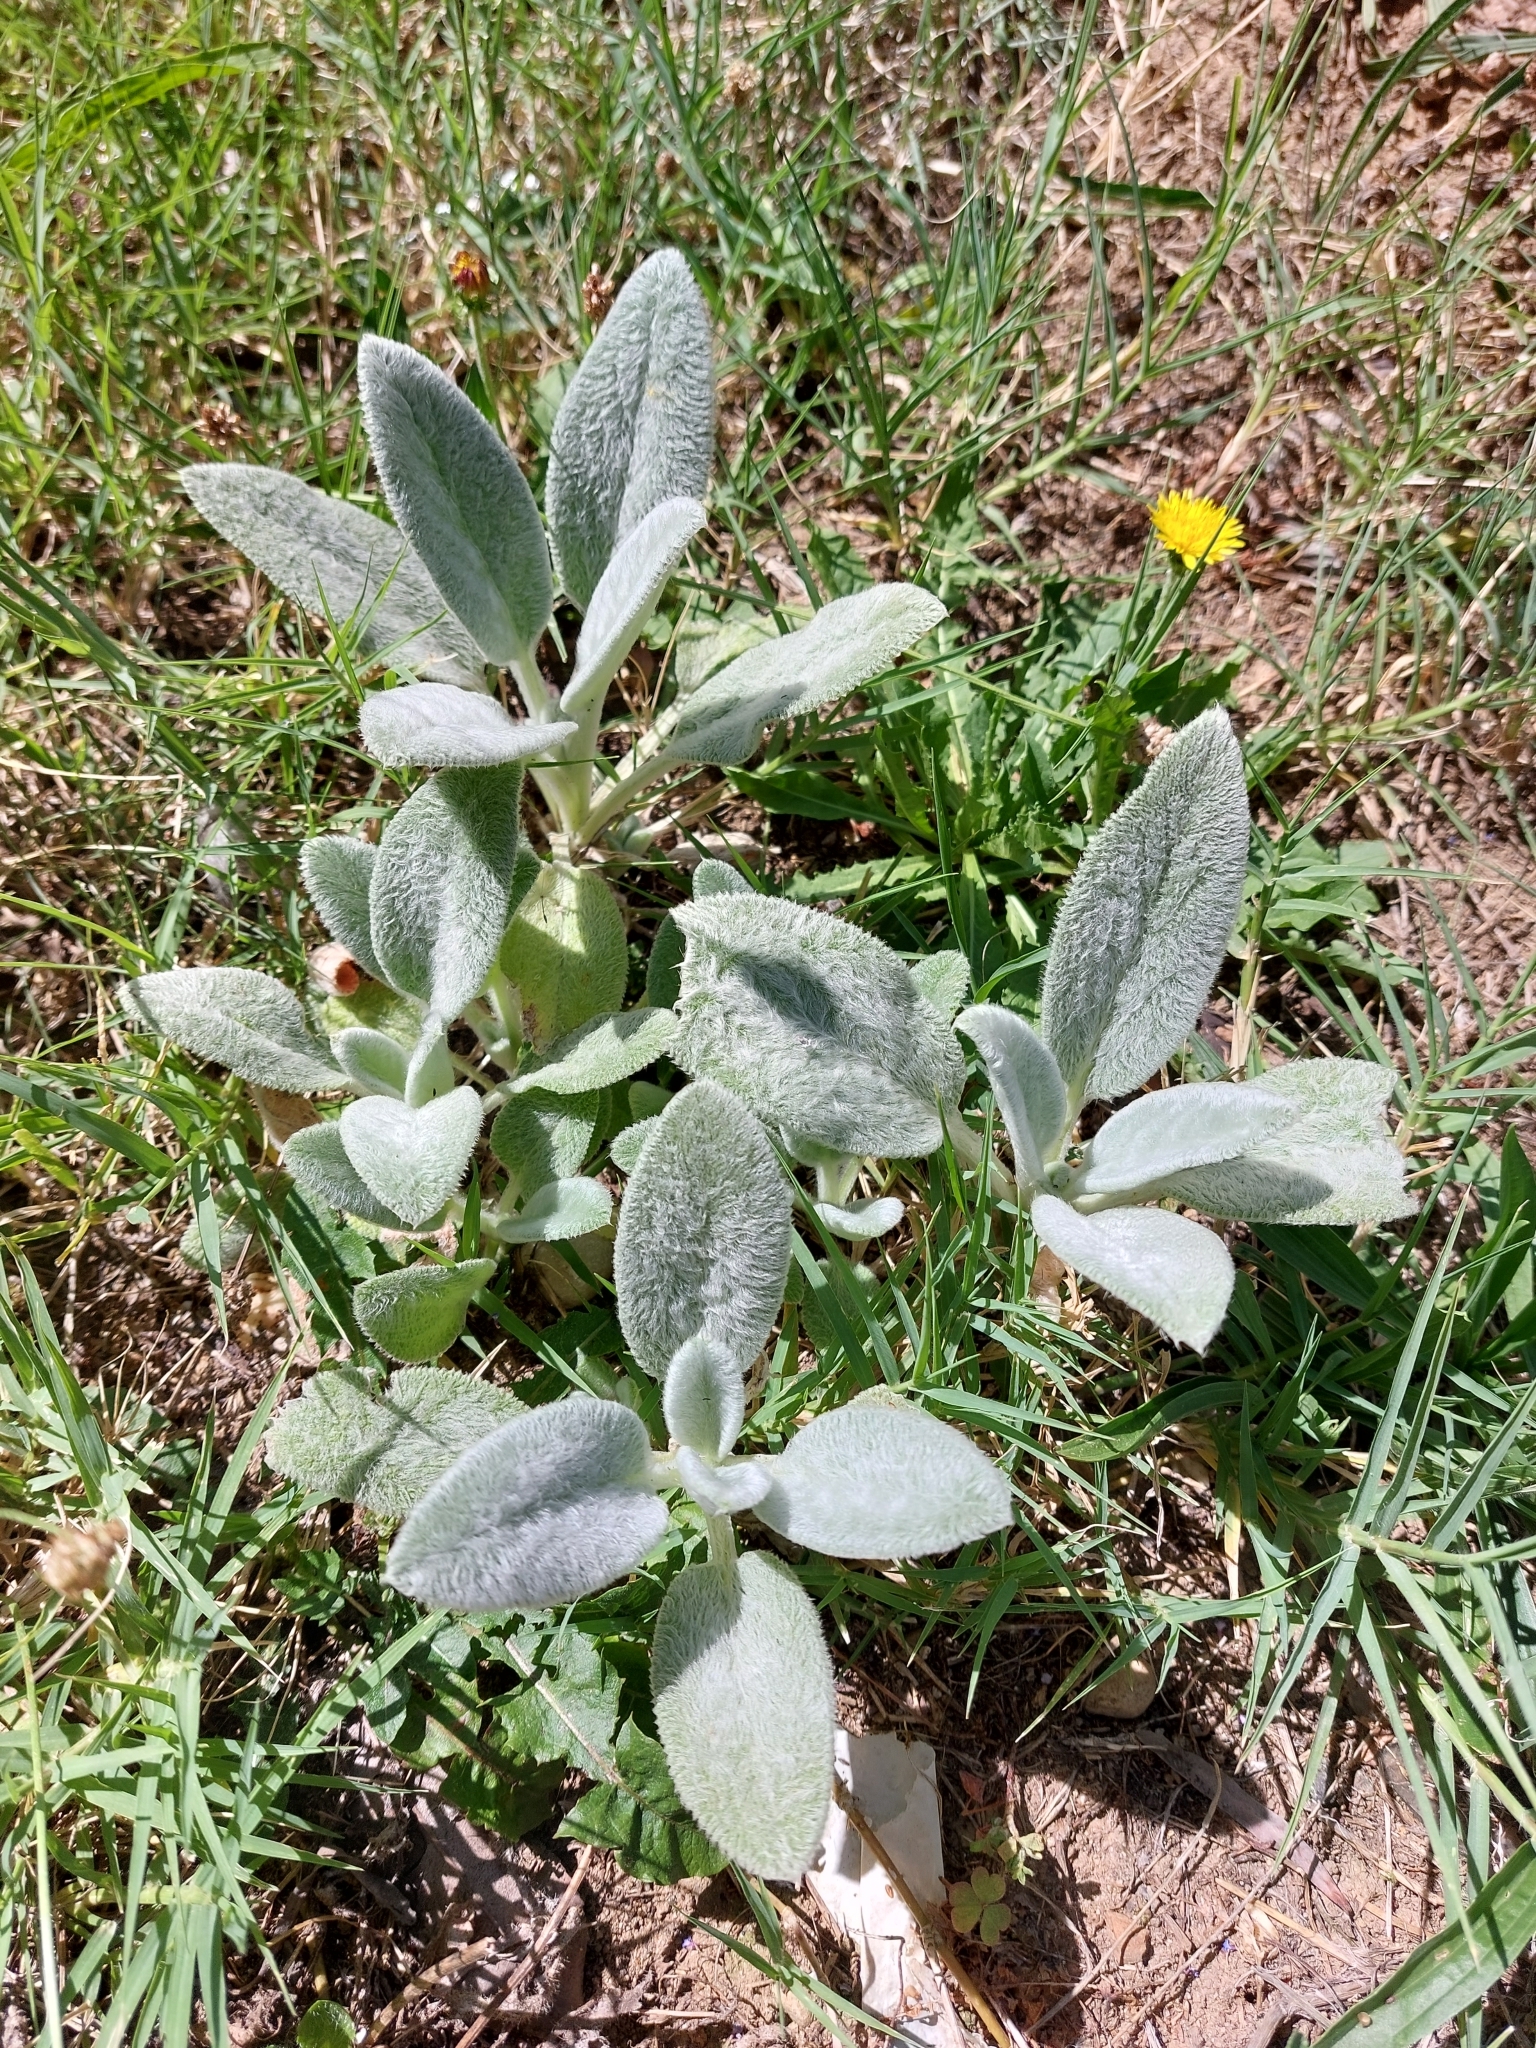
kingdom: Plantae
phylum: Tracheophyta
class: Magnoliopsida
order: Lamiales
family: Lamiaceae
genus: Stachys
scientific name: Stachys byzantina
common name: Lamb's-ear
